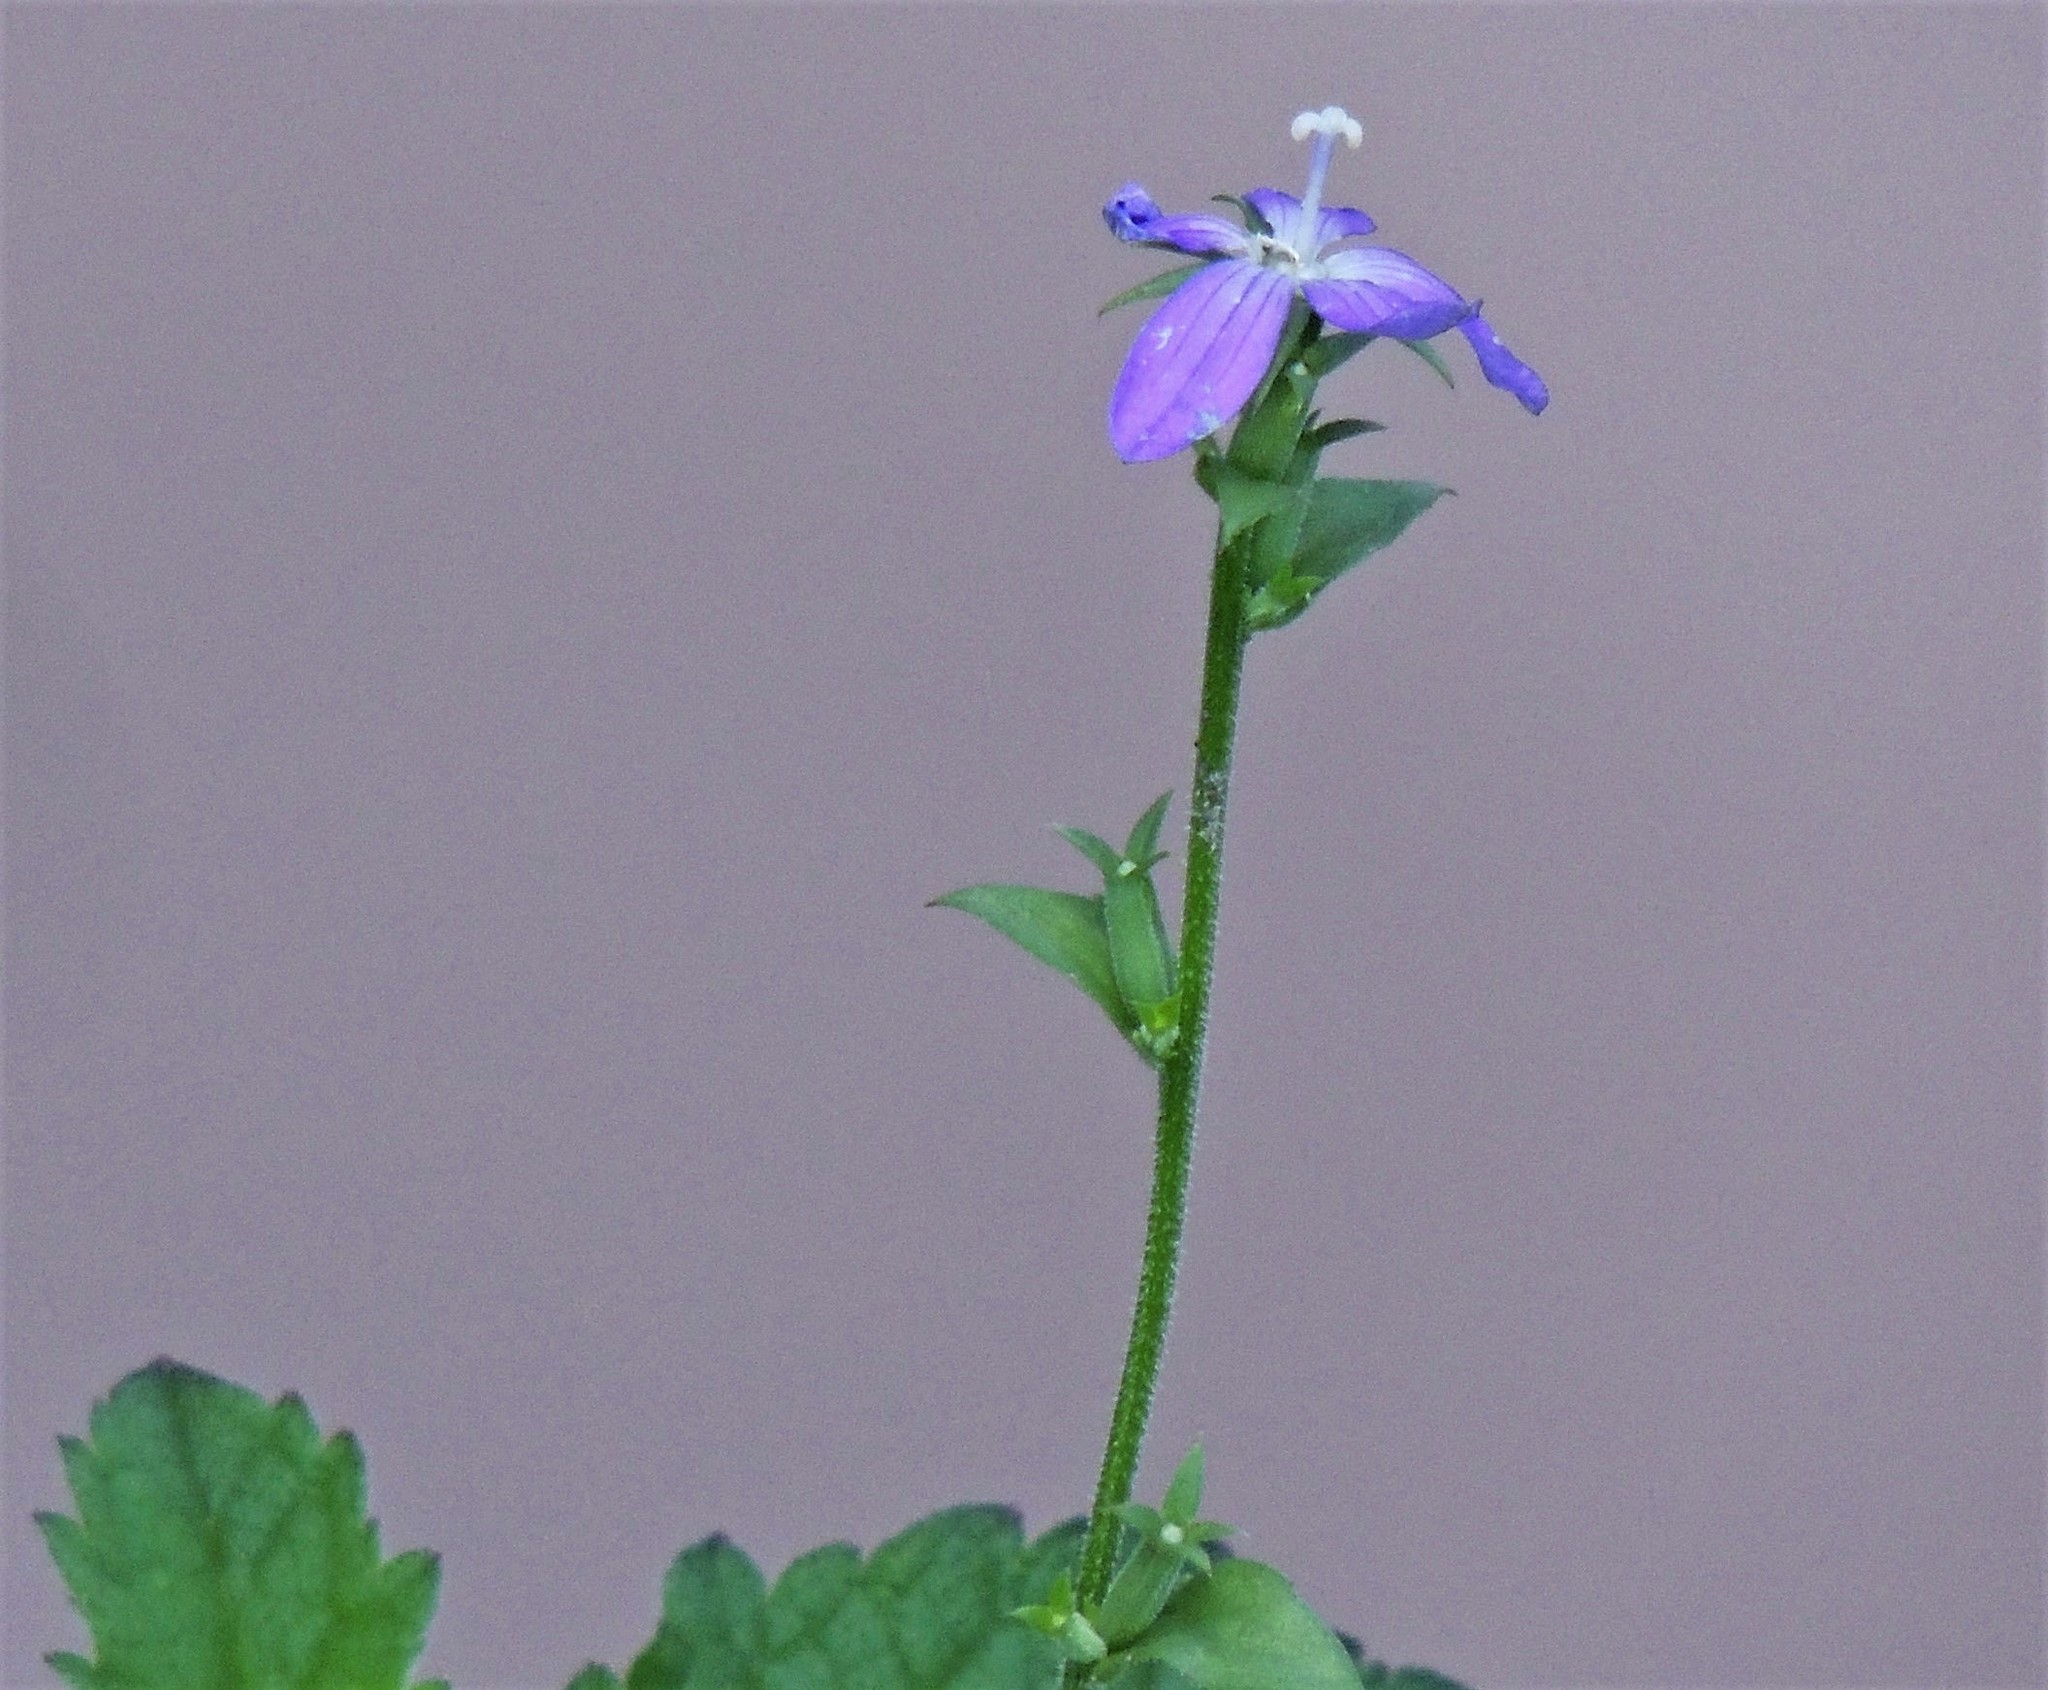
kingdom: Plantae
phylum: Tracheophyta
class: Magnoliopsida
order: Asterales
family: Campanulaceae
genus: Triodanis
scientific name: Triodanis biflora
